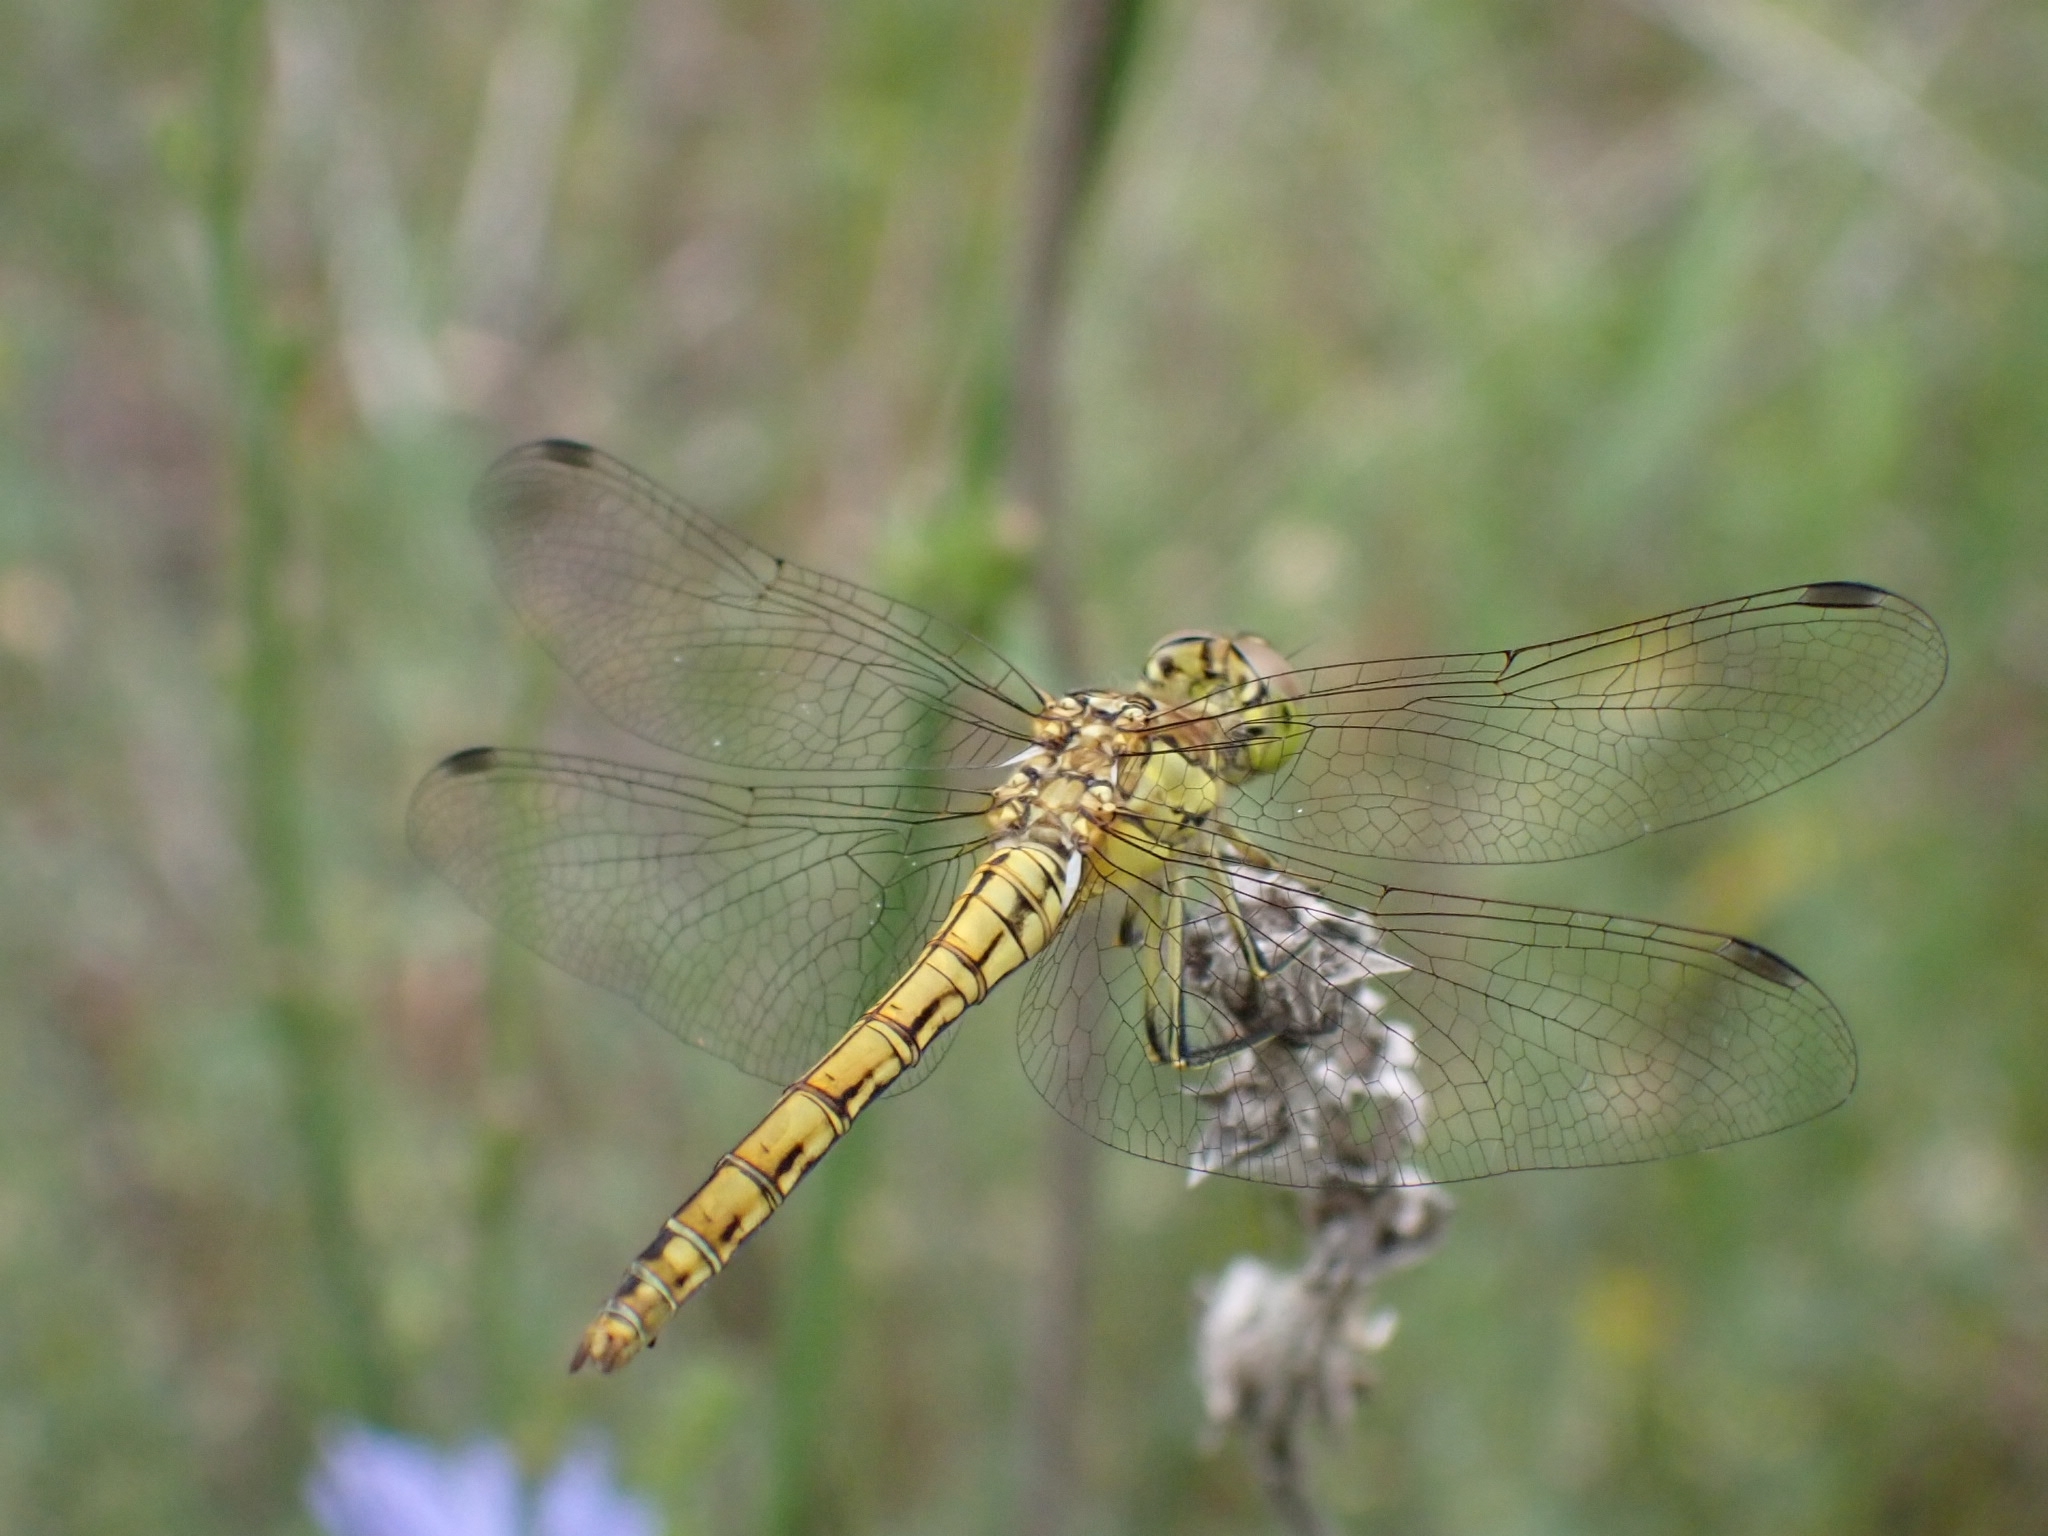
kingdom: Animalia
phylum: Arthropoda
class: Insecta
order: Odonata
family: Libellulidae
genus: Sympetrum
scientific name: Sympetrum vulgatum
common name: Vagrant darter
